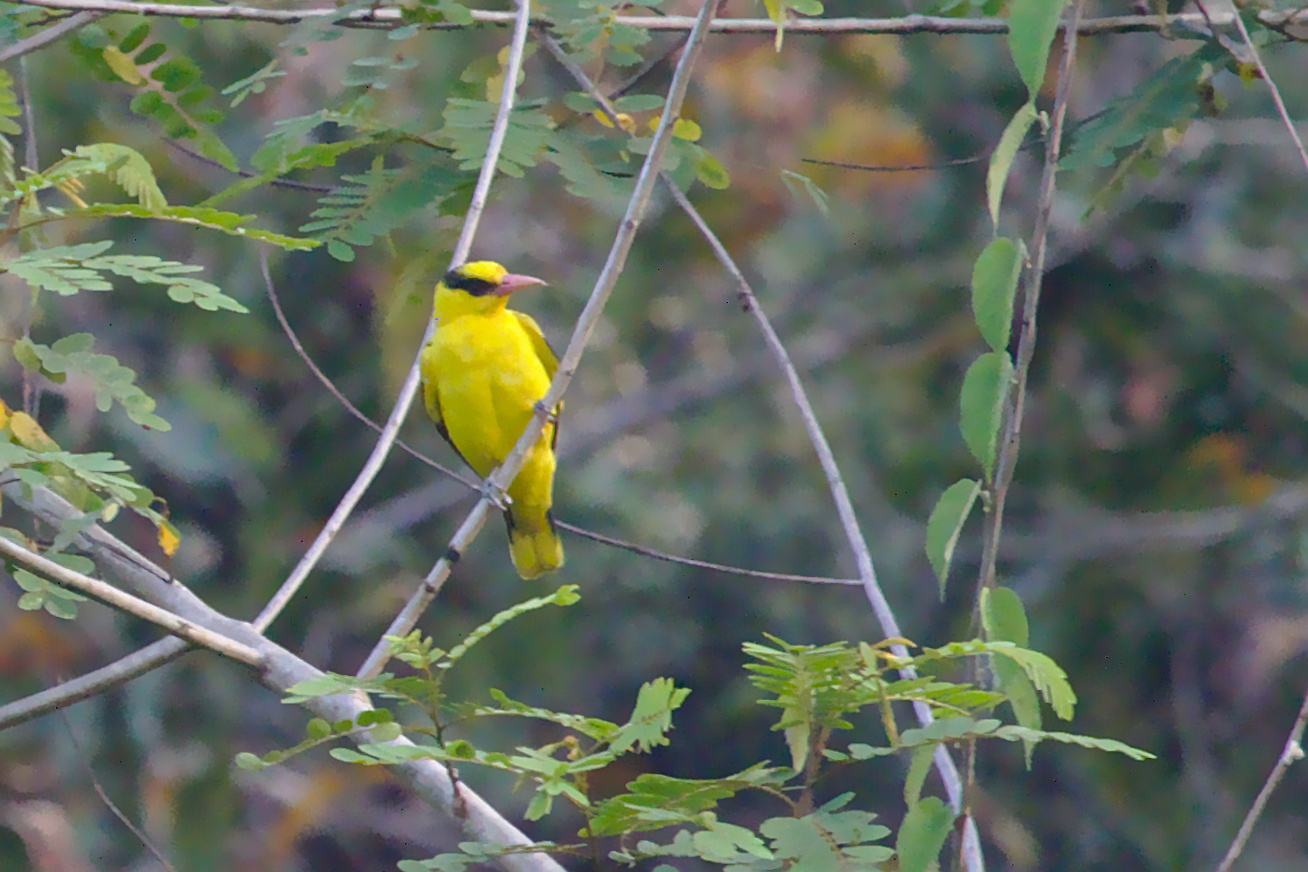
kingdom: Animalia
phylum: Chordata
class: Aves
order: Passeriformes
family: Oriolidae
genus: Oriolus
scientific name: Oriolus chinensis
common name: Black-naped oriole
